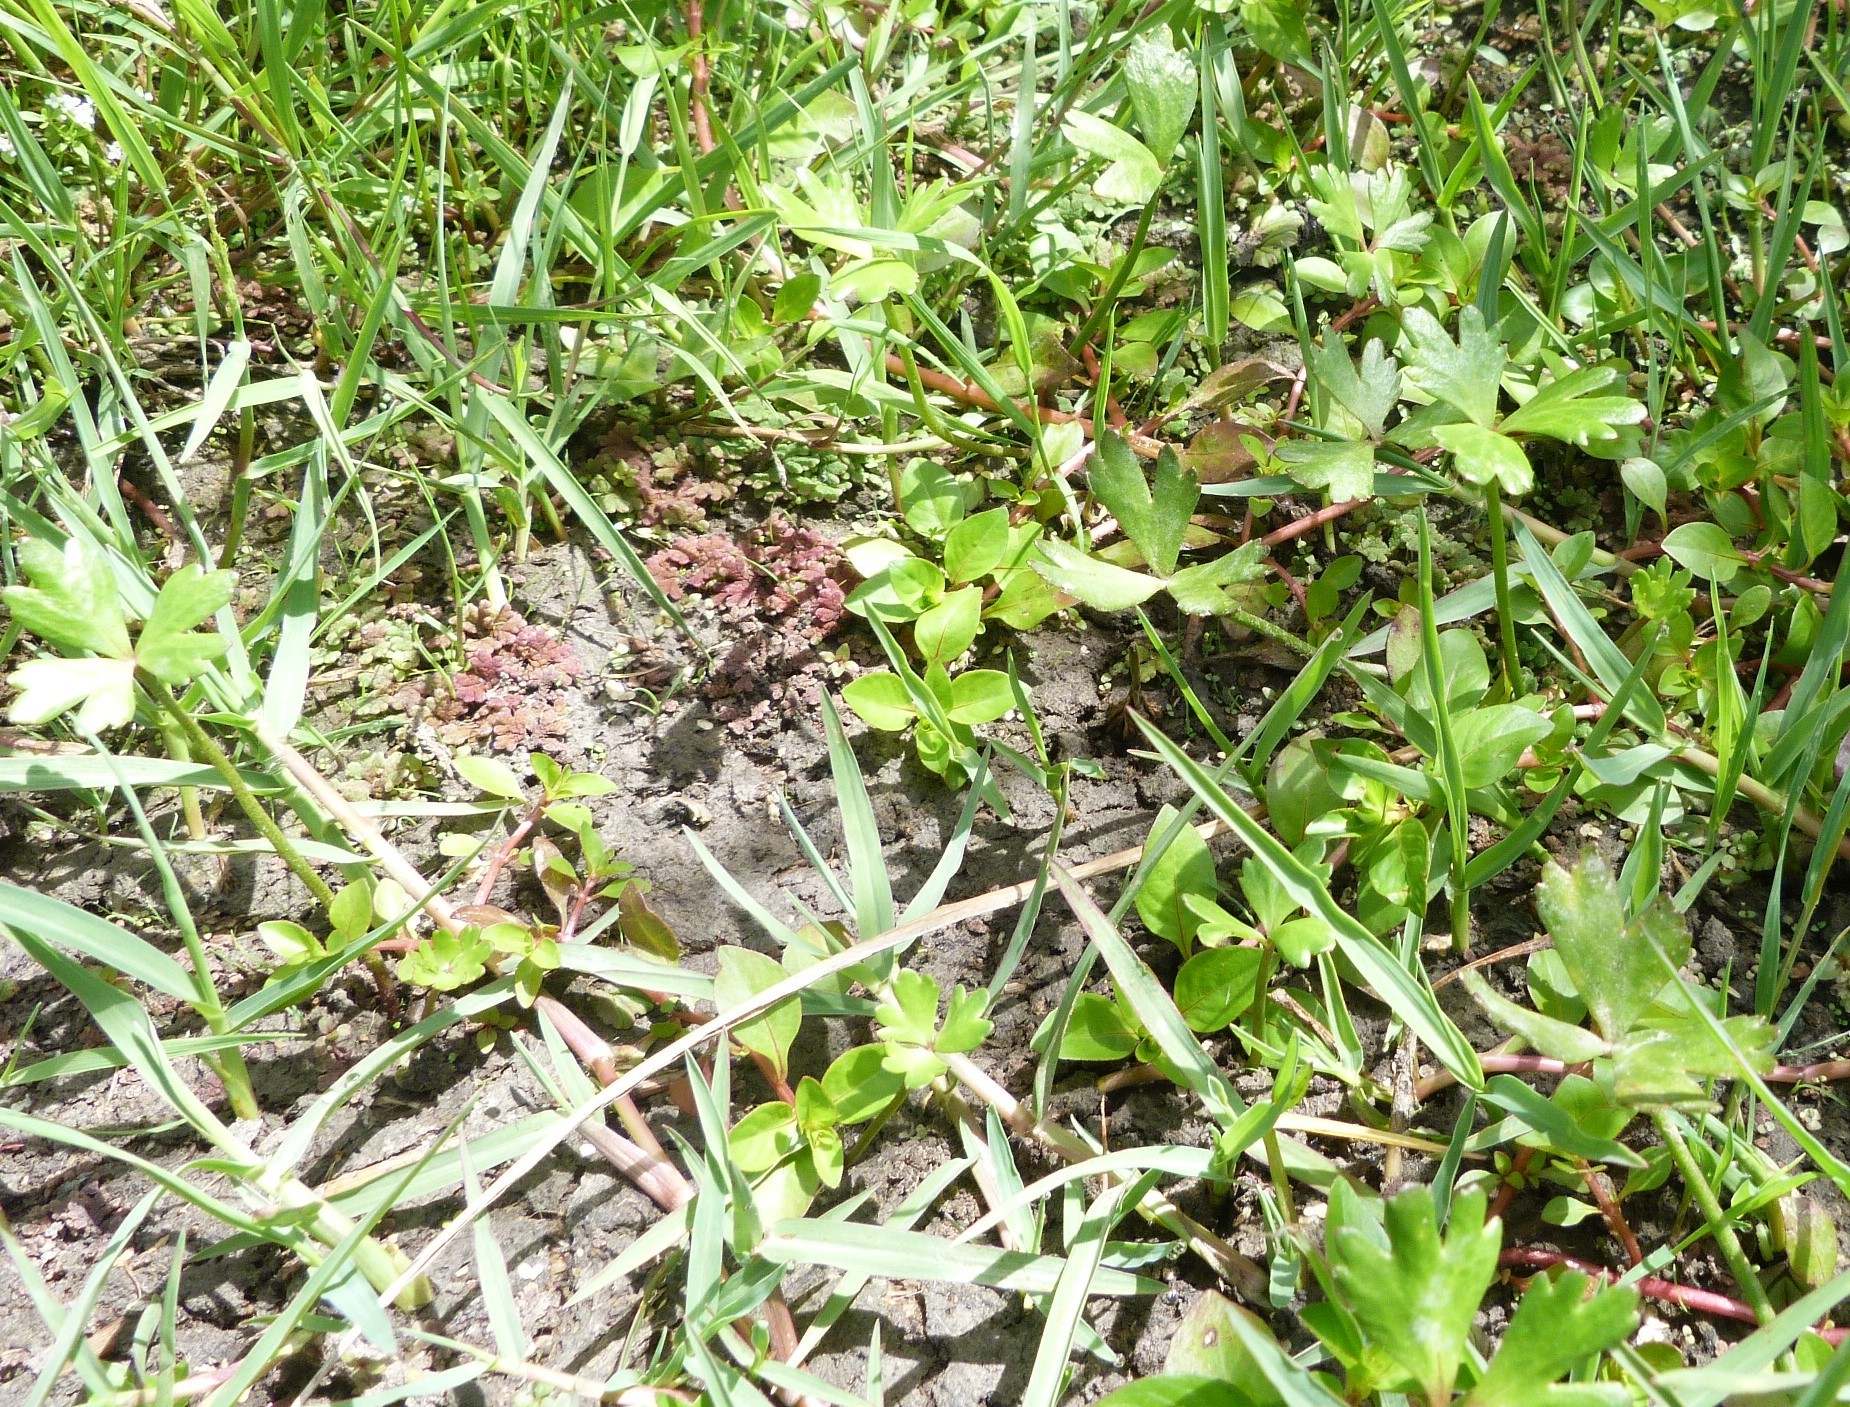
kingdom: Plantae
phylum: Tracheophyta
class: Magnoliopsida
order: Ranunculales
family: Ranunculaceae
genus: Ranunculus
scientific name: Ranunculus macropus
